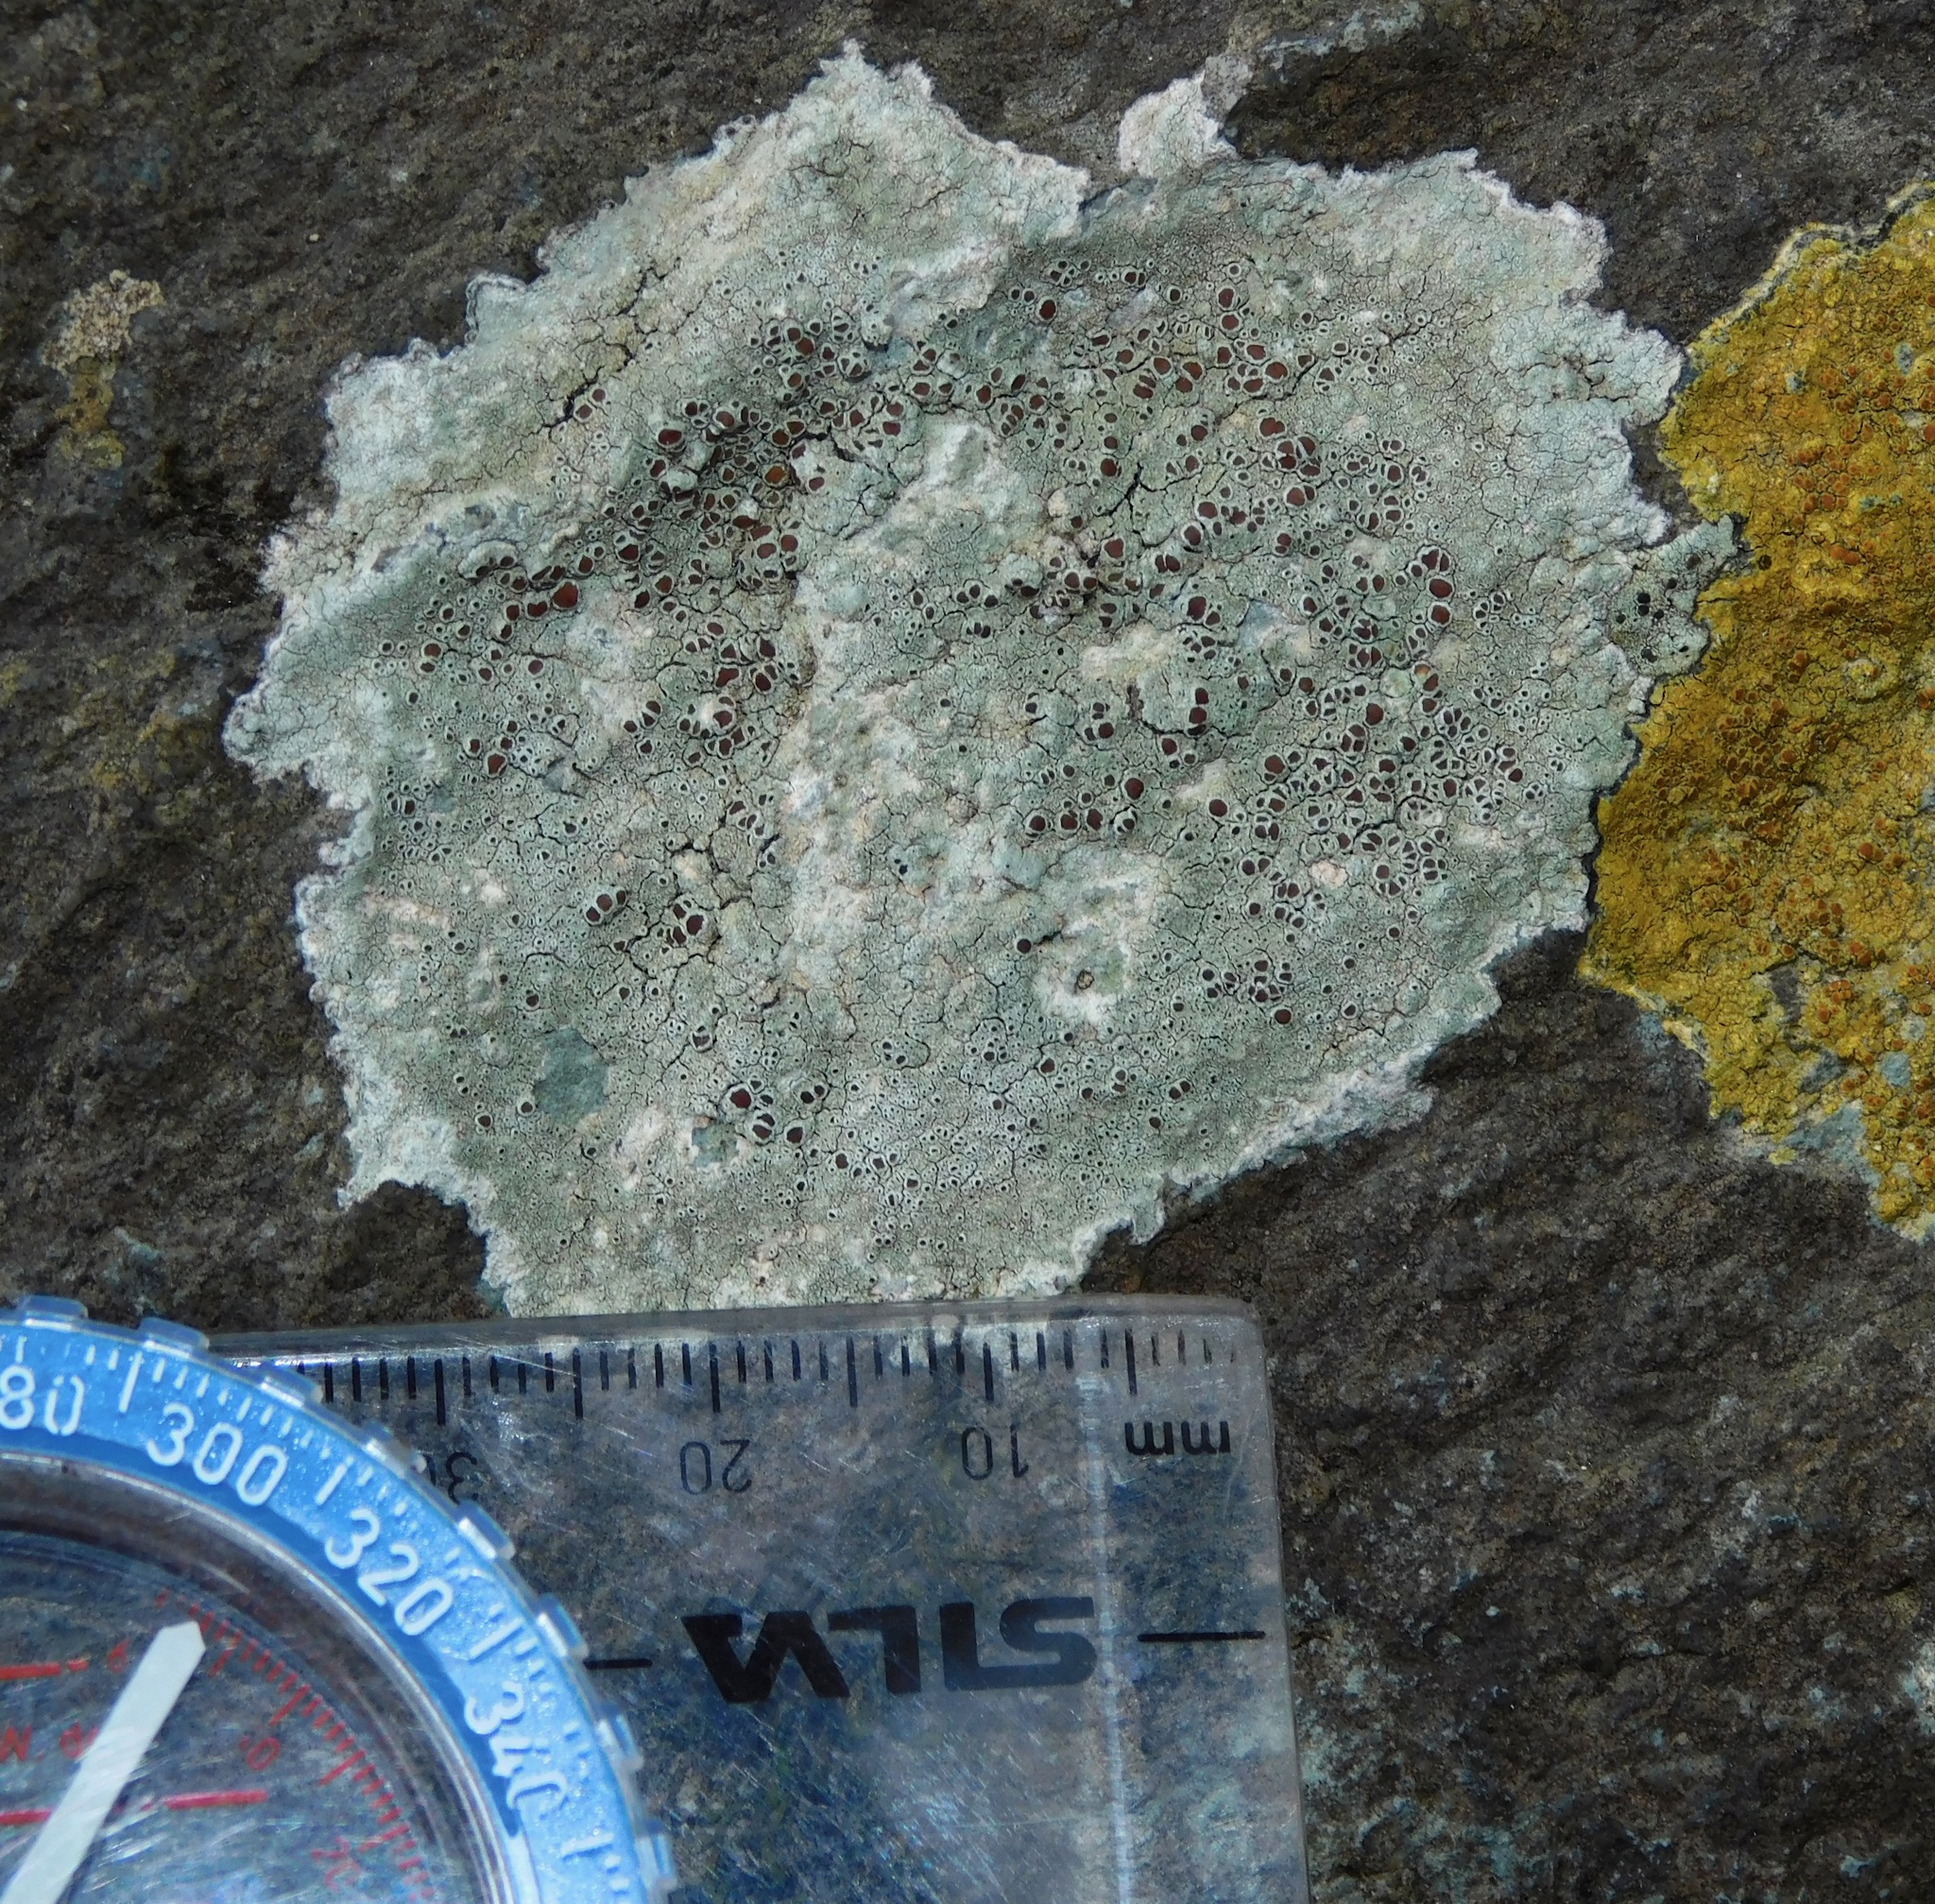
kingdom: Fungi
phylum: Ascomycota
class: Lecanoromycetes
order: Lecanorales
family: Lecanoraceae
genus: Lecanora
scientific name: Lecanora subimmergens
